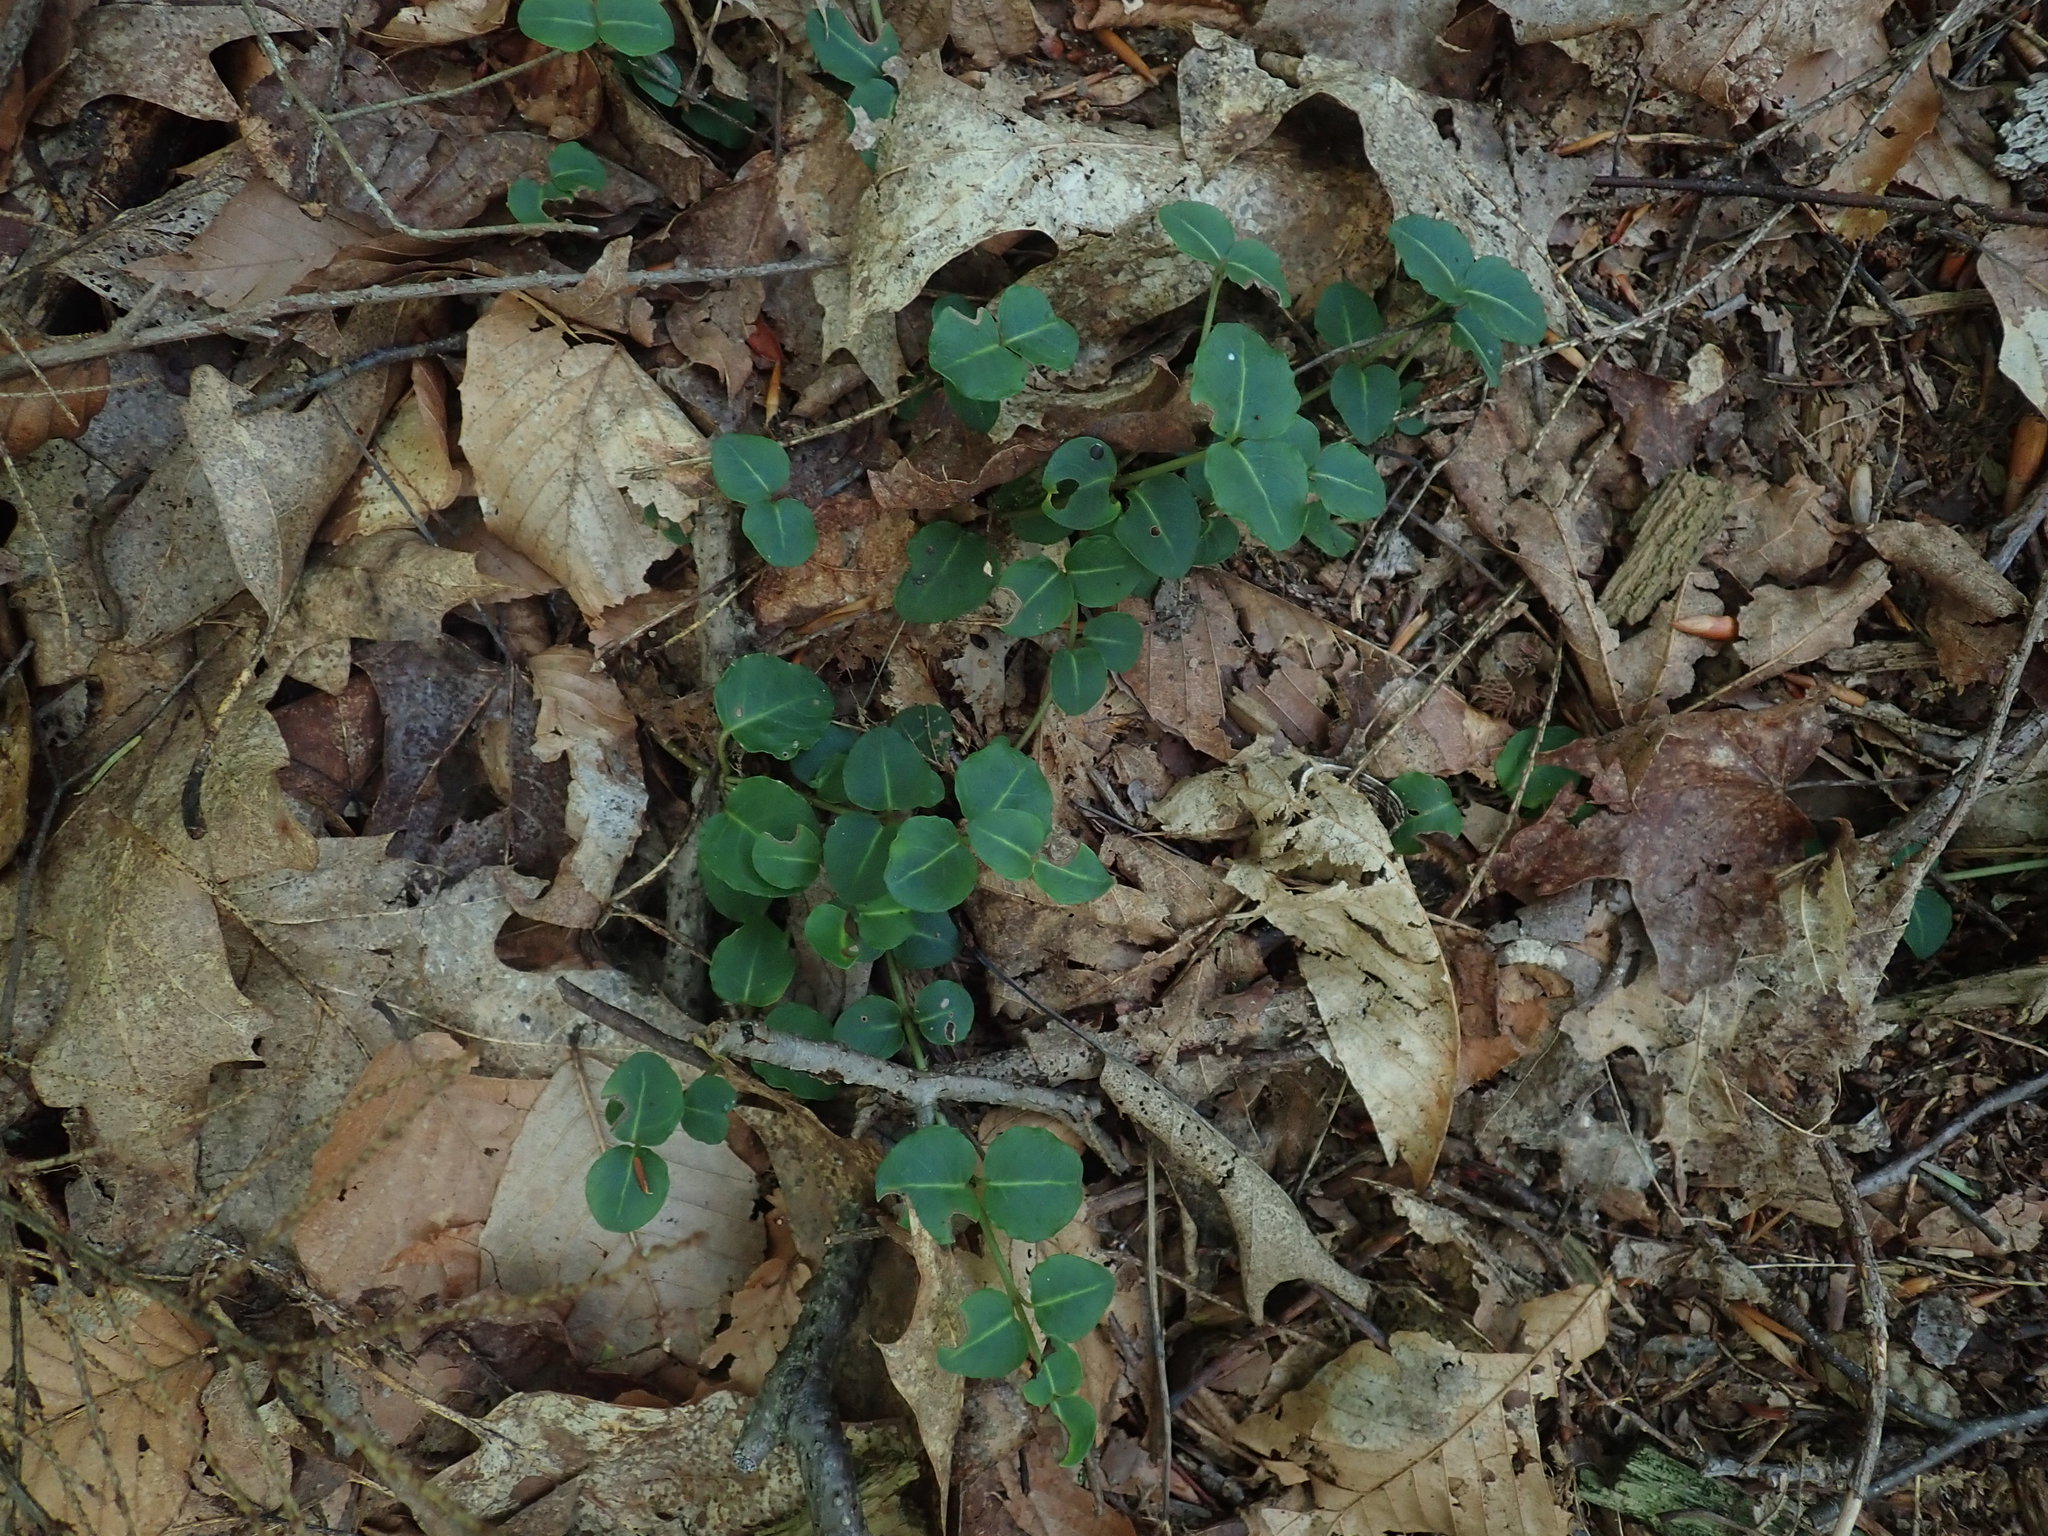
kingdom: Plantae
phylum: Tracheophyta
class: Magnoliopsida
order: Gentianales
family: Rubiaceae
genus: Mitchella
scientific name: Mitchella repens
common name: Partridge-berry
